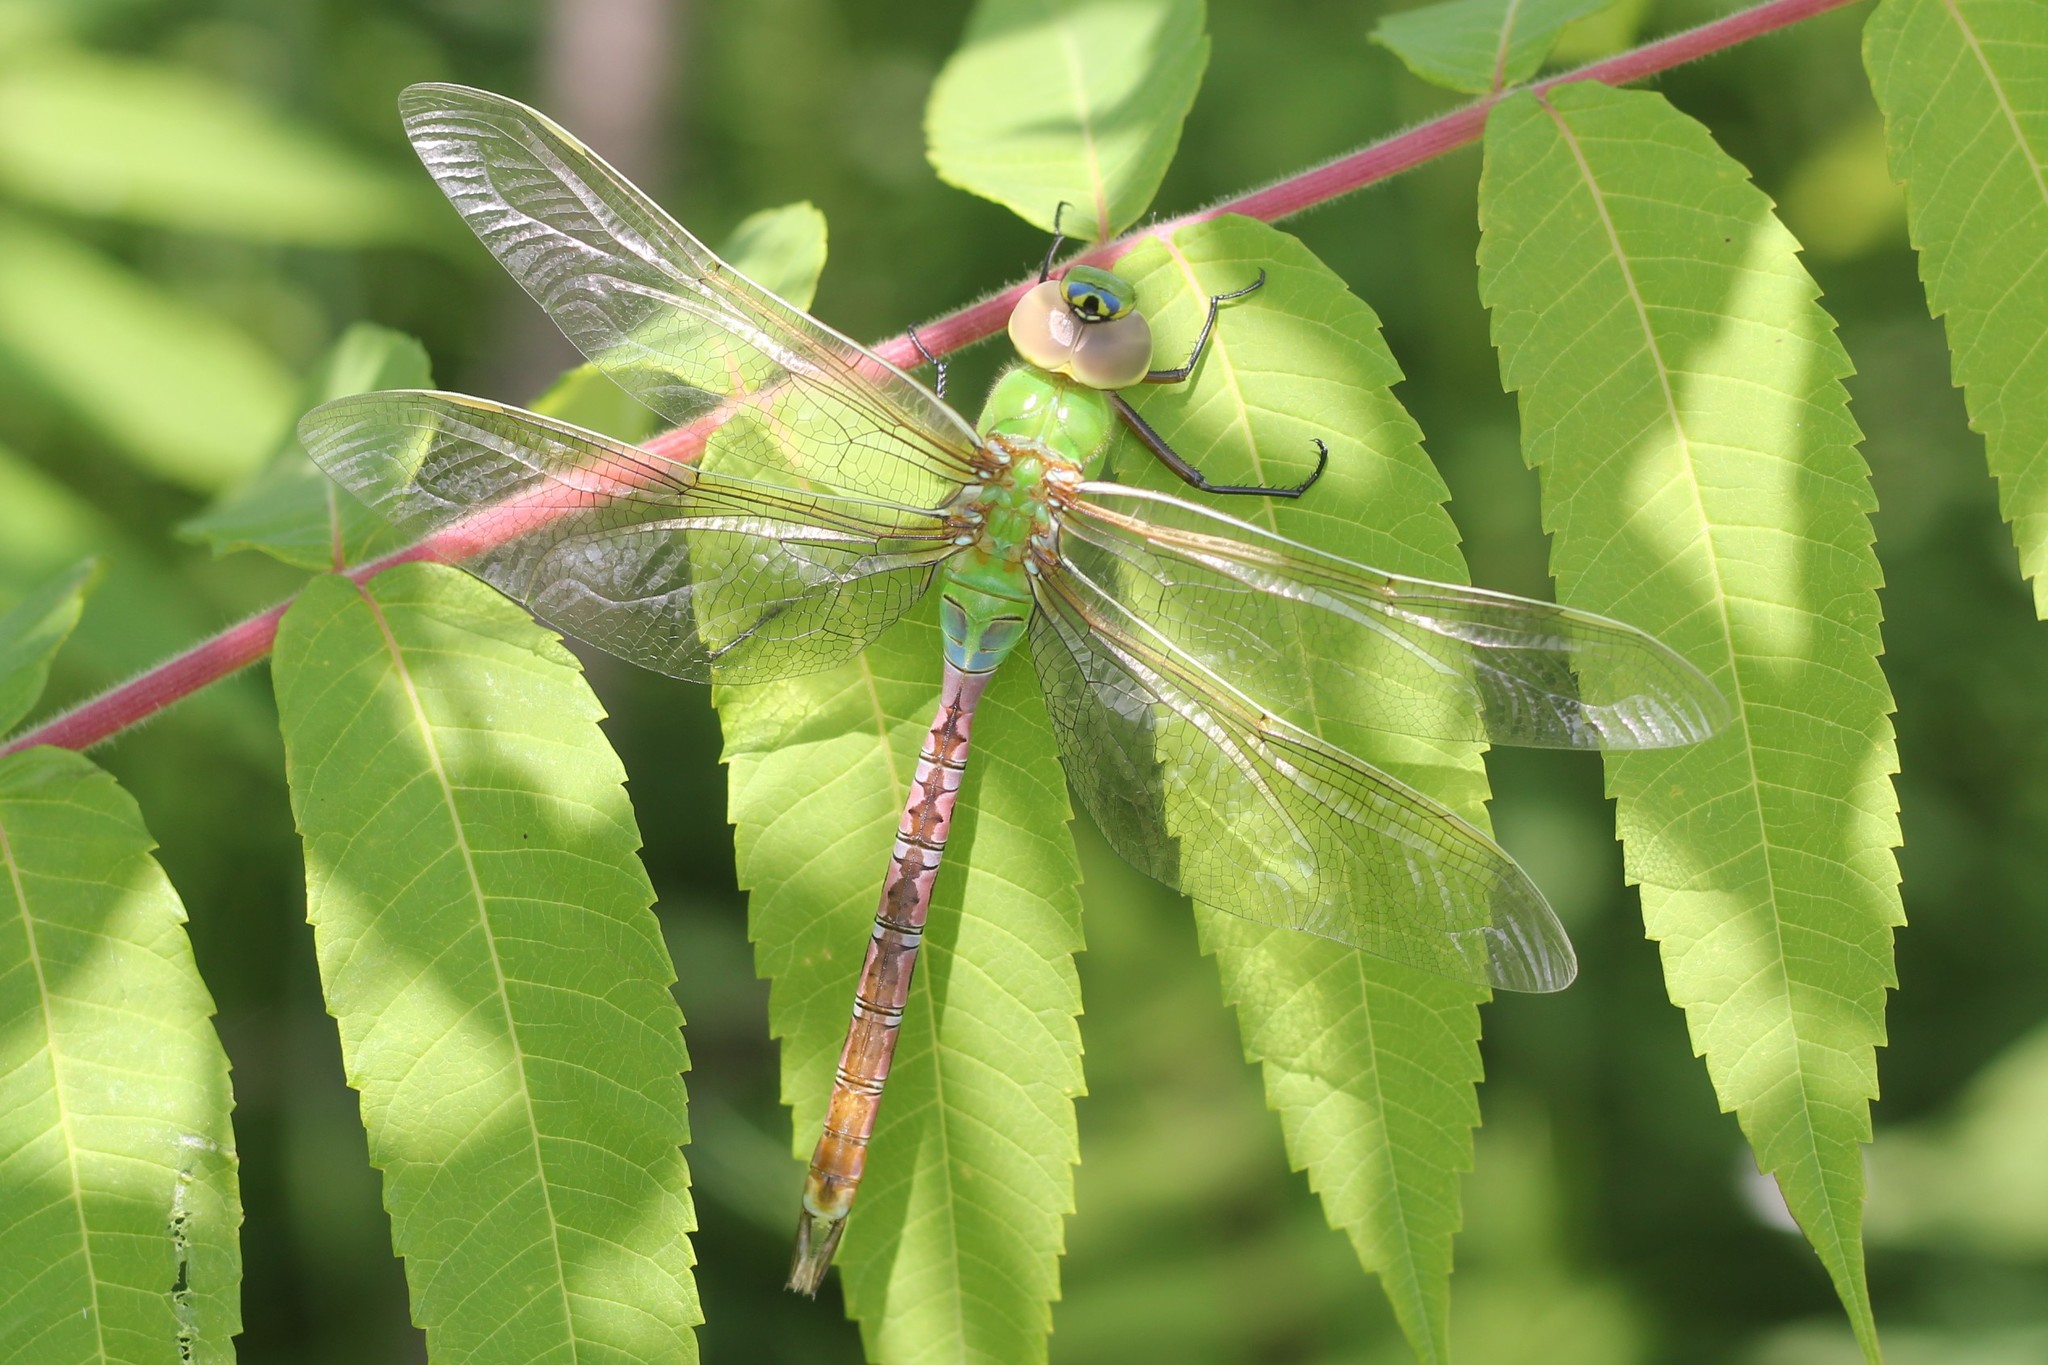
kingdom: Animalia
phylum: Arthropoda
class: Insecta
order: Odonata
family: Aeshnidae
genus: Anax
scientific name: Anax junius
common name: Common green darner
